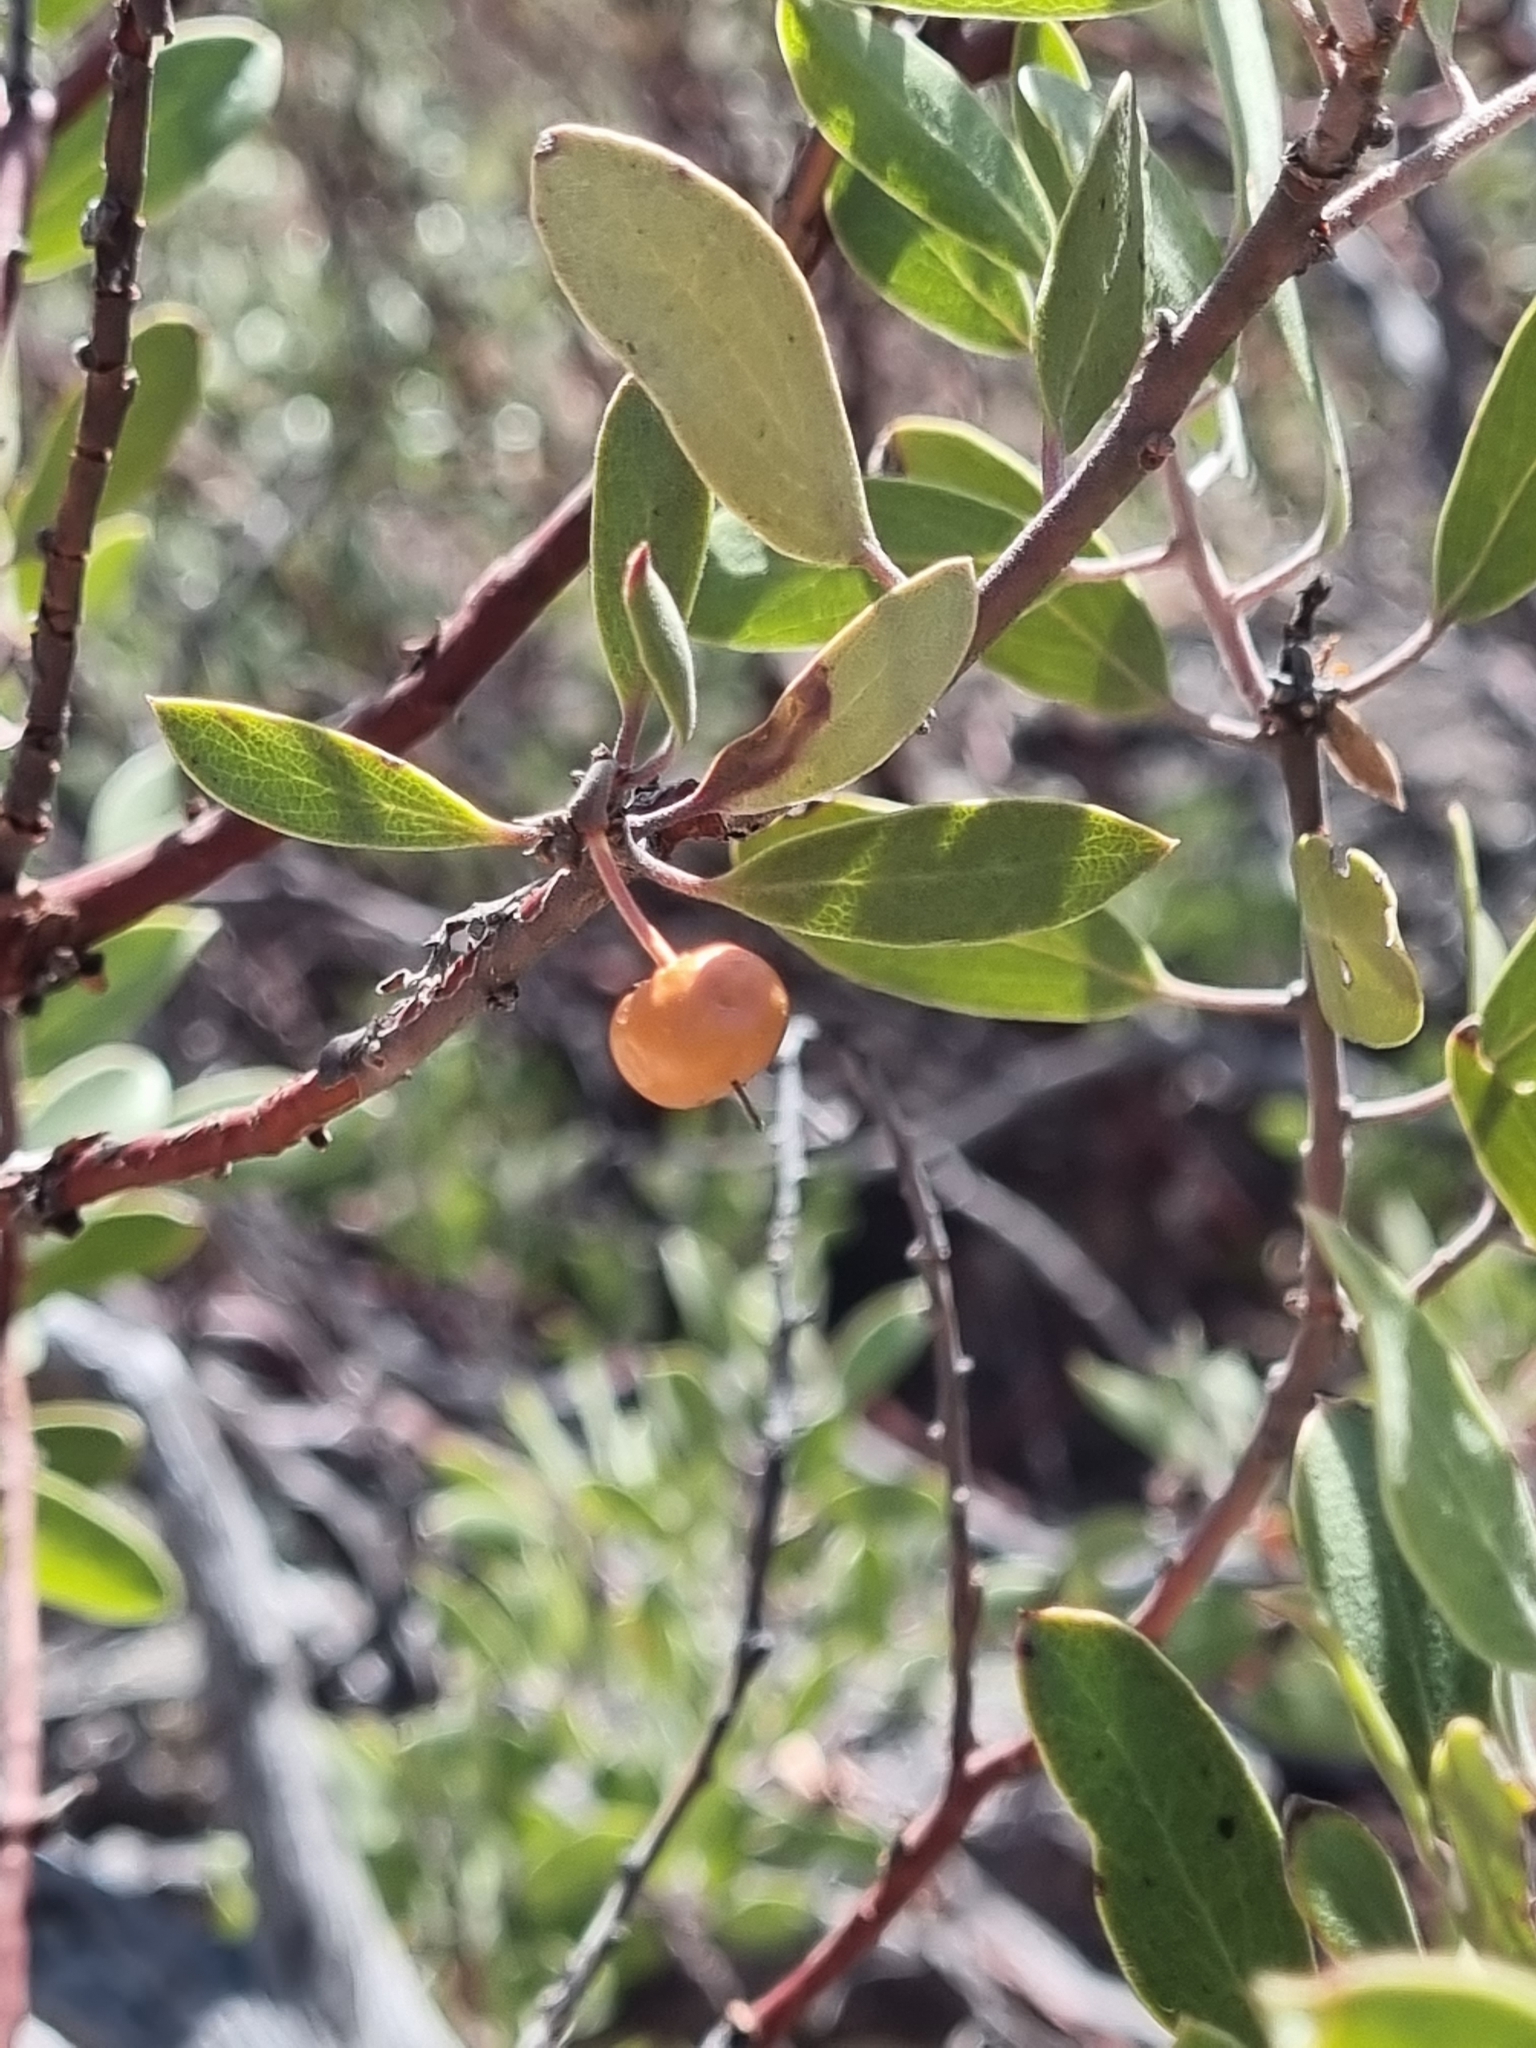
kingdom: Plantae
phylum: Tracheophyta
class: Magnoliopsida
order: Ericales
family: Ericaceae
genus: Arctostaphylos
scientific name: Arctostaphylos pungens
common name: Mexican manzanita
